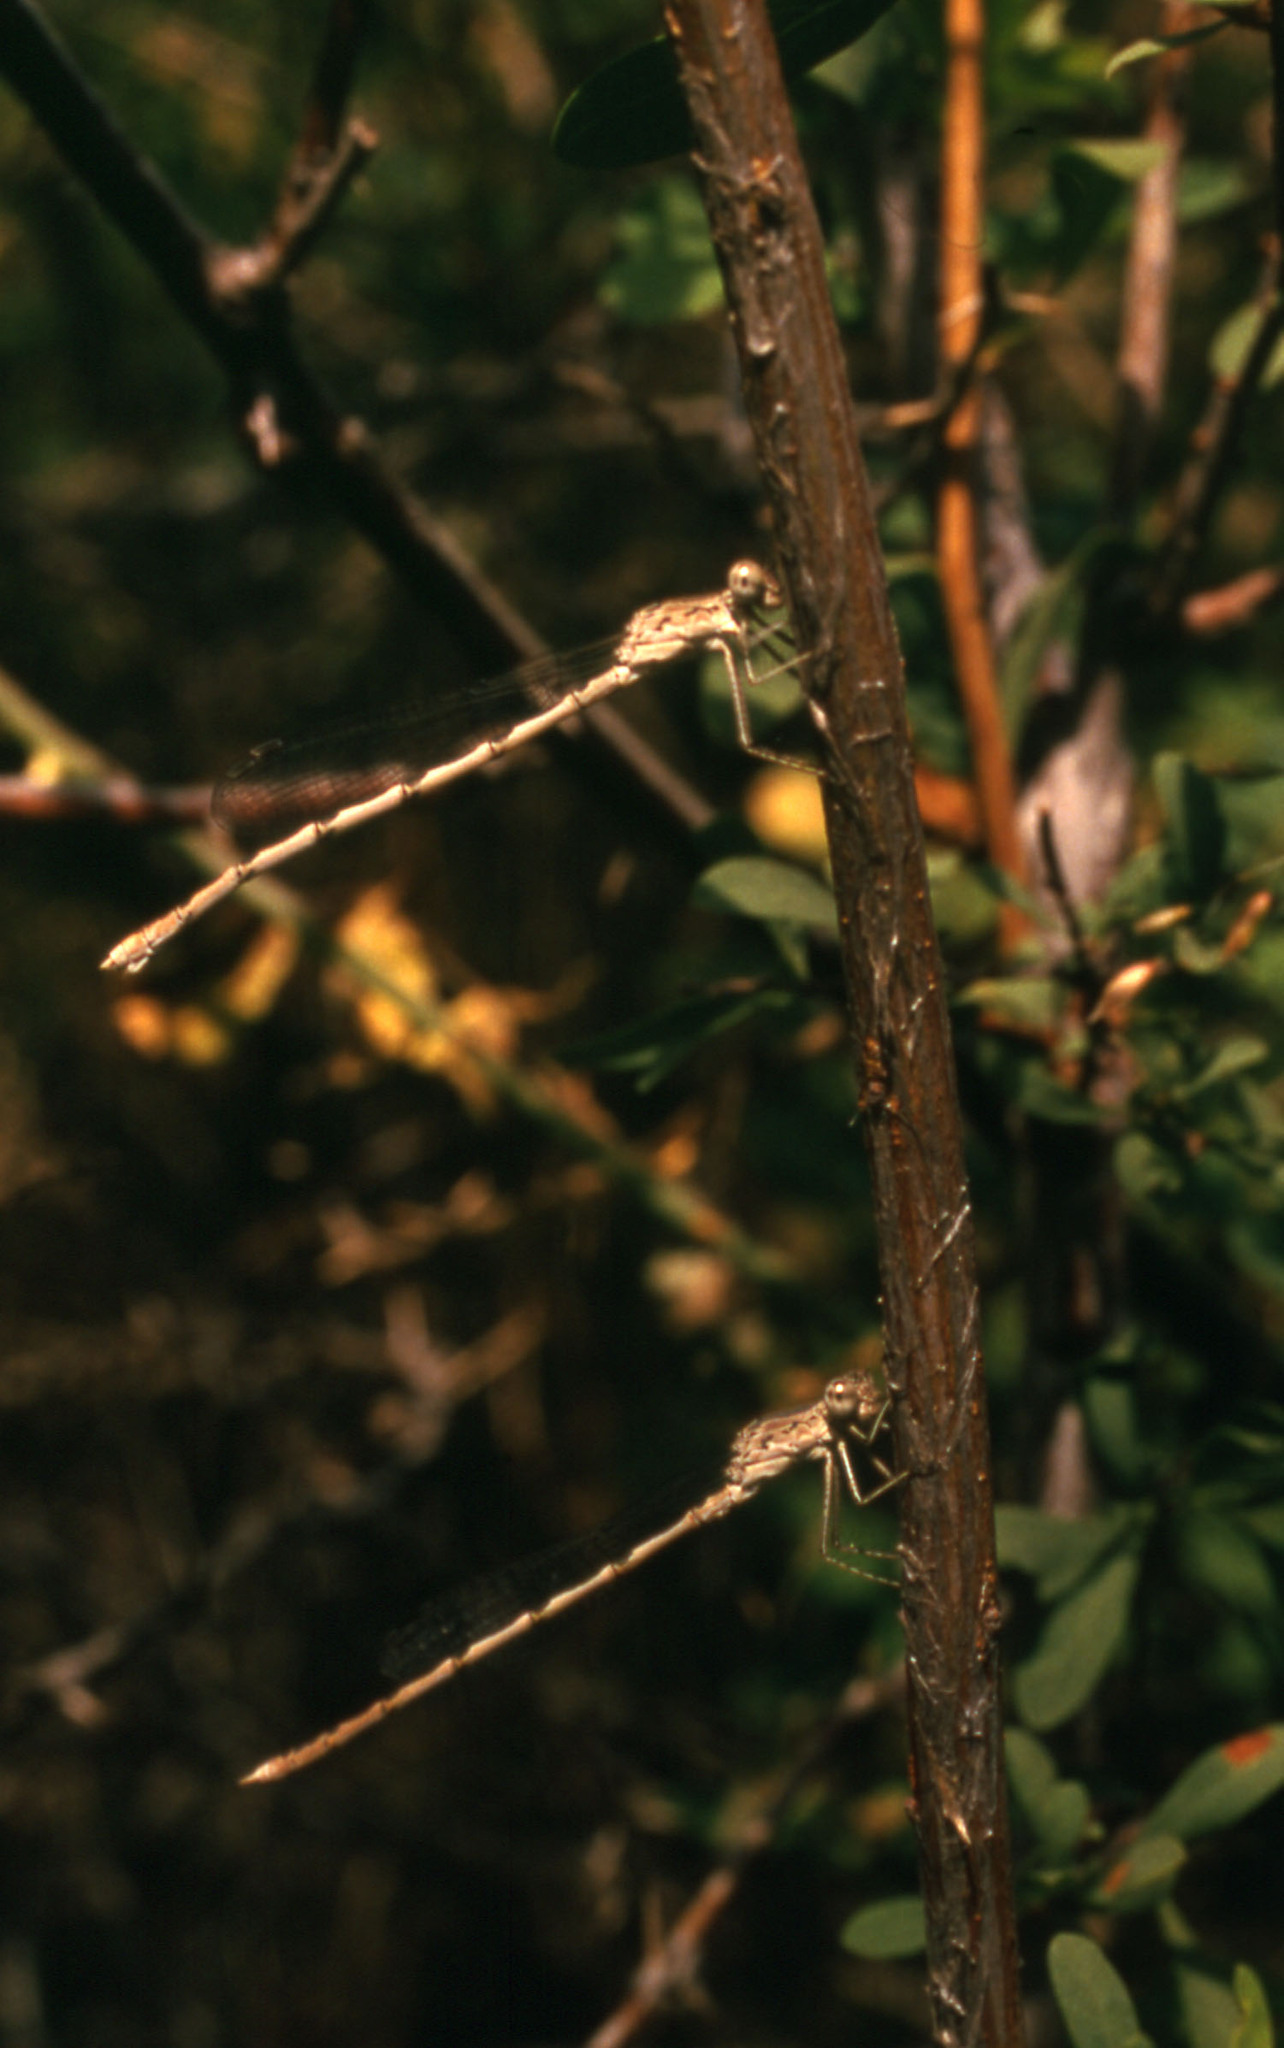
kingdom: Animalia
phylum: Arthropoda
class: Insecta
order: Odonata
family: Lestidae
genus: Sympecma
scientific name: Sympecma gobica
